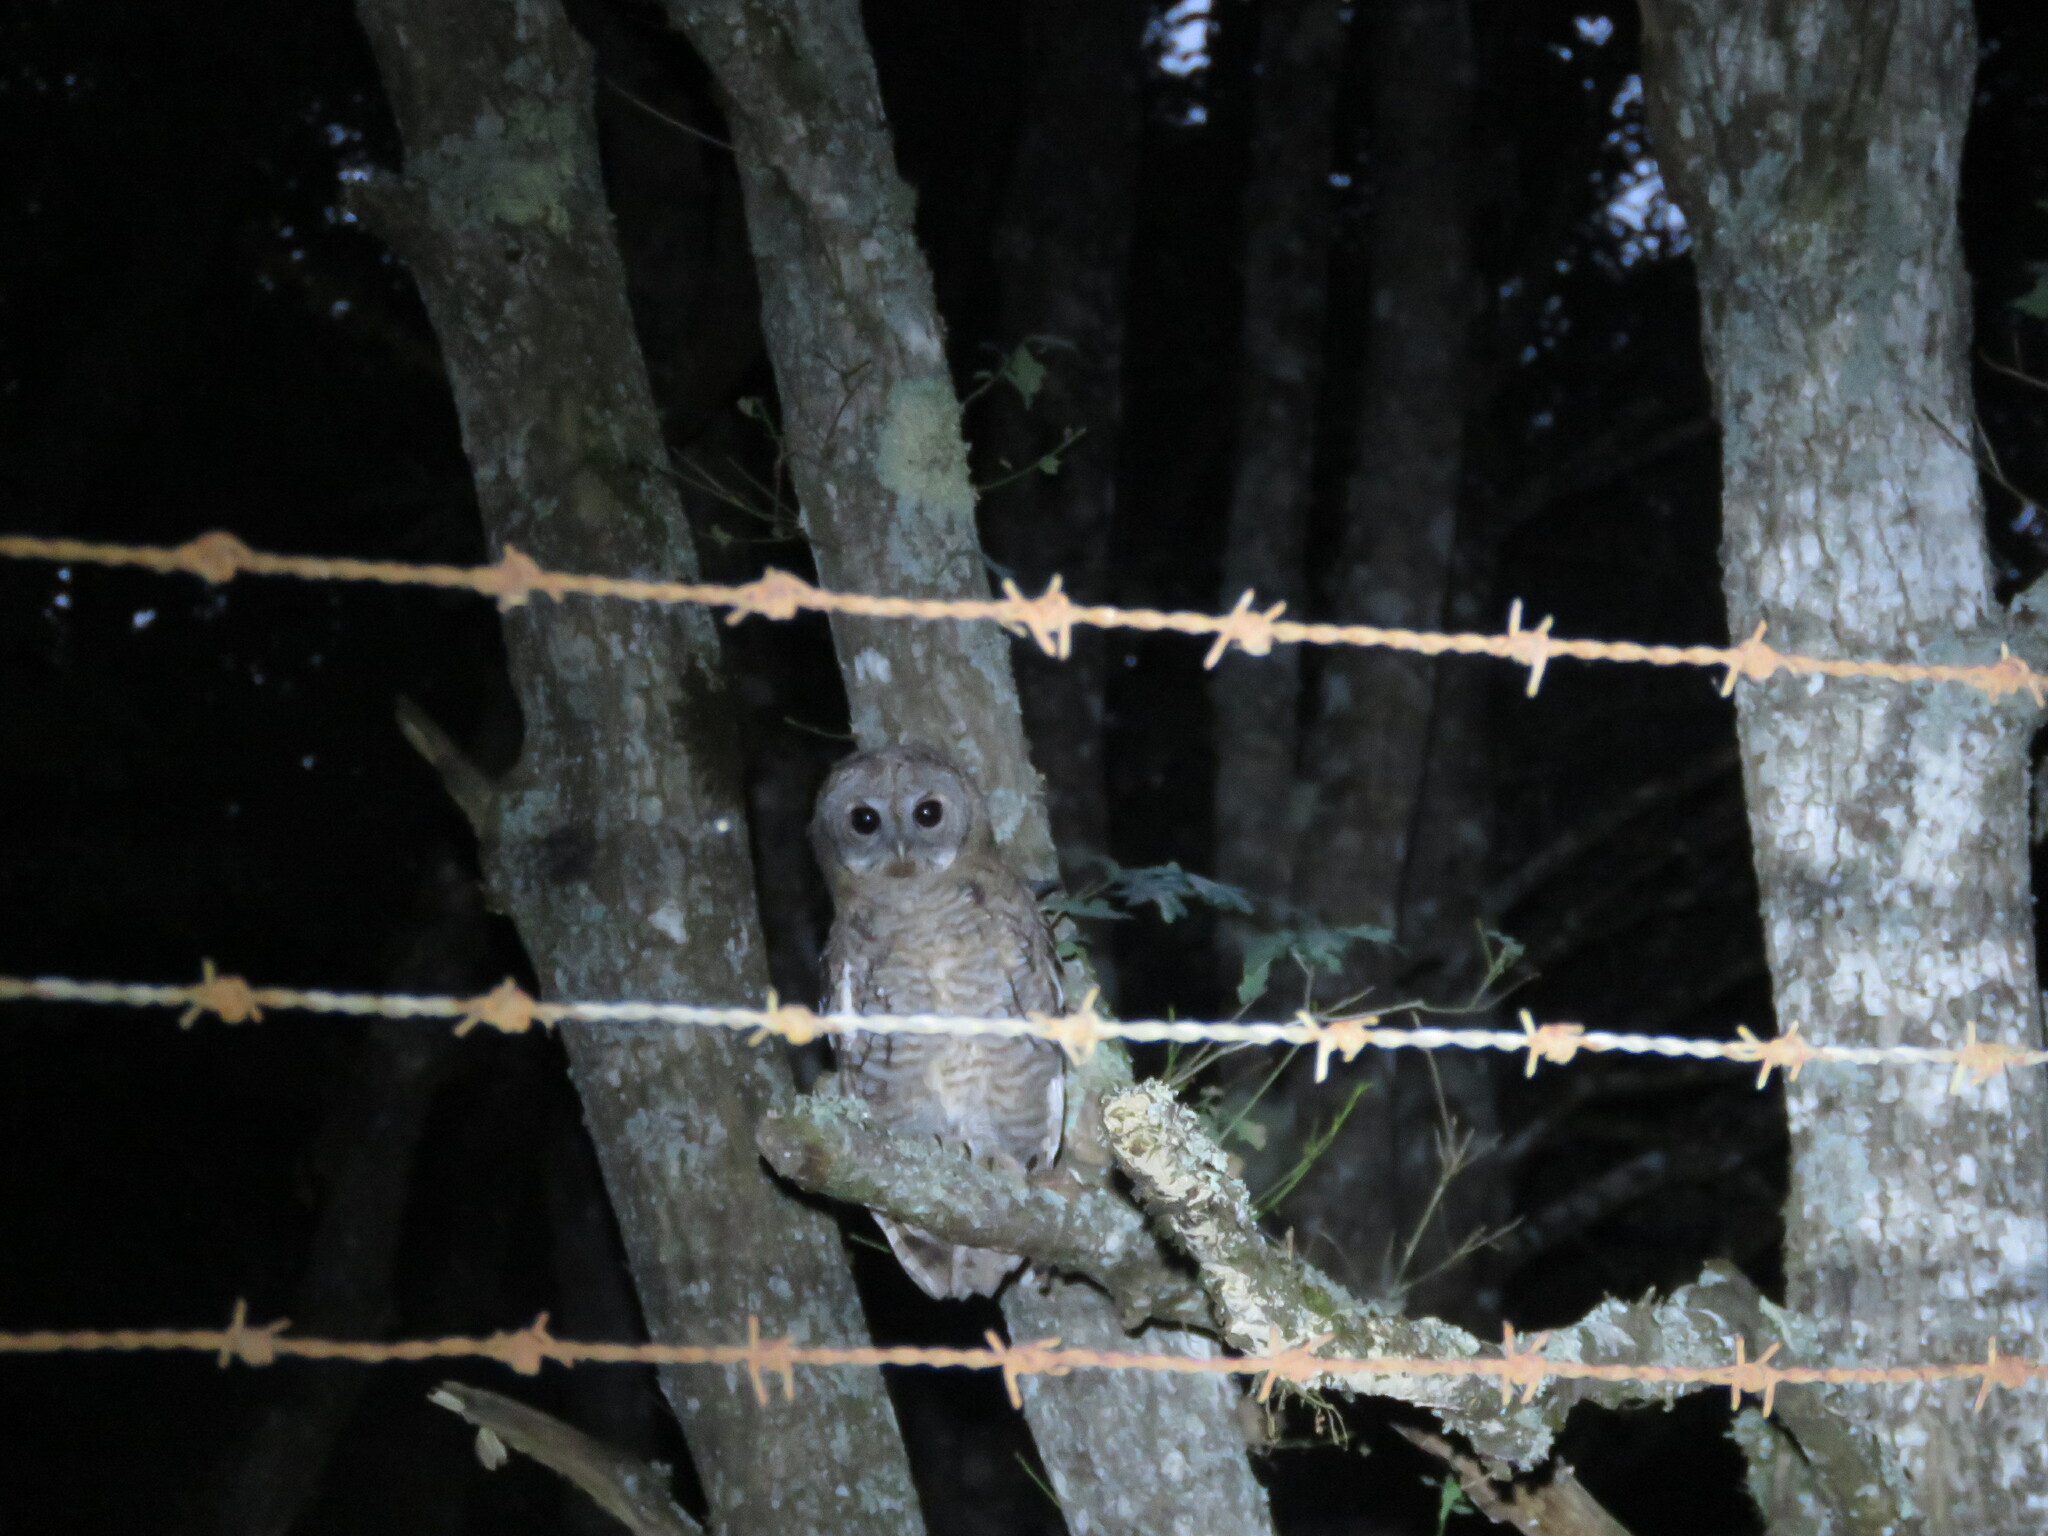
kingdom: Animalia
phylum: Chordata
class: Aves
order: Strigiformes
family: Strigidae
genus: Strix
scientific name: Strix aluco
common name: Tawny owl
